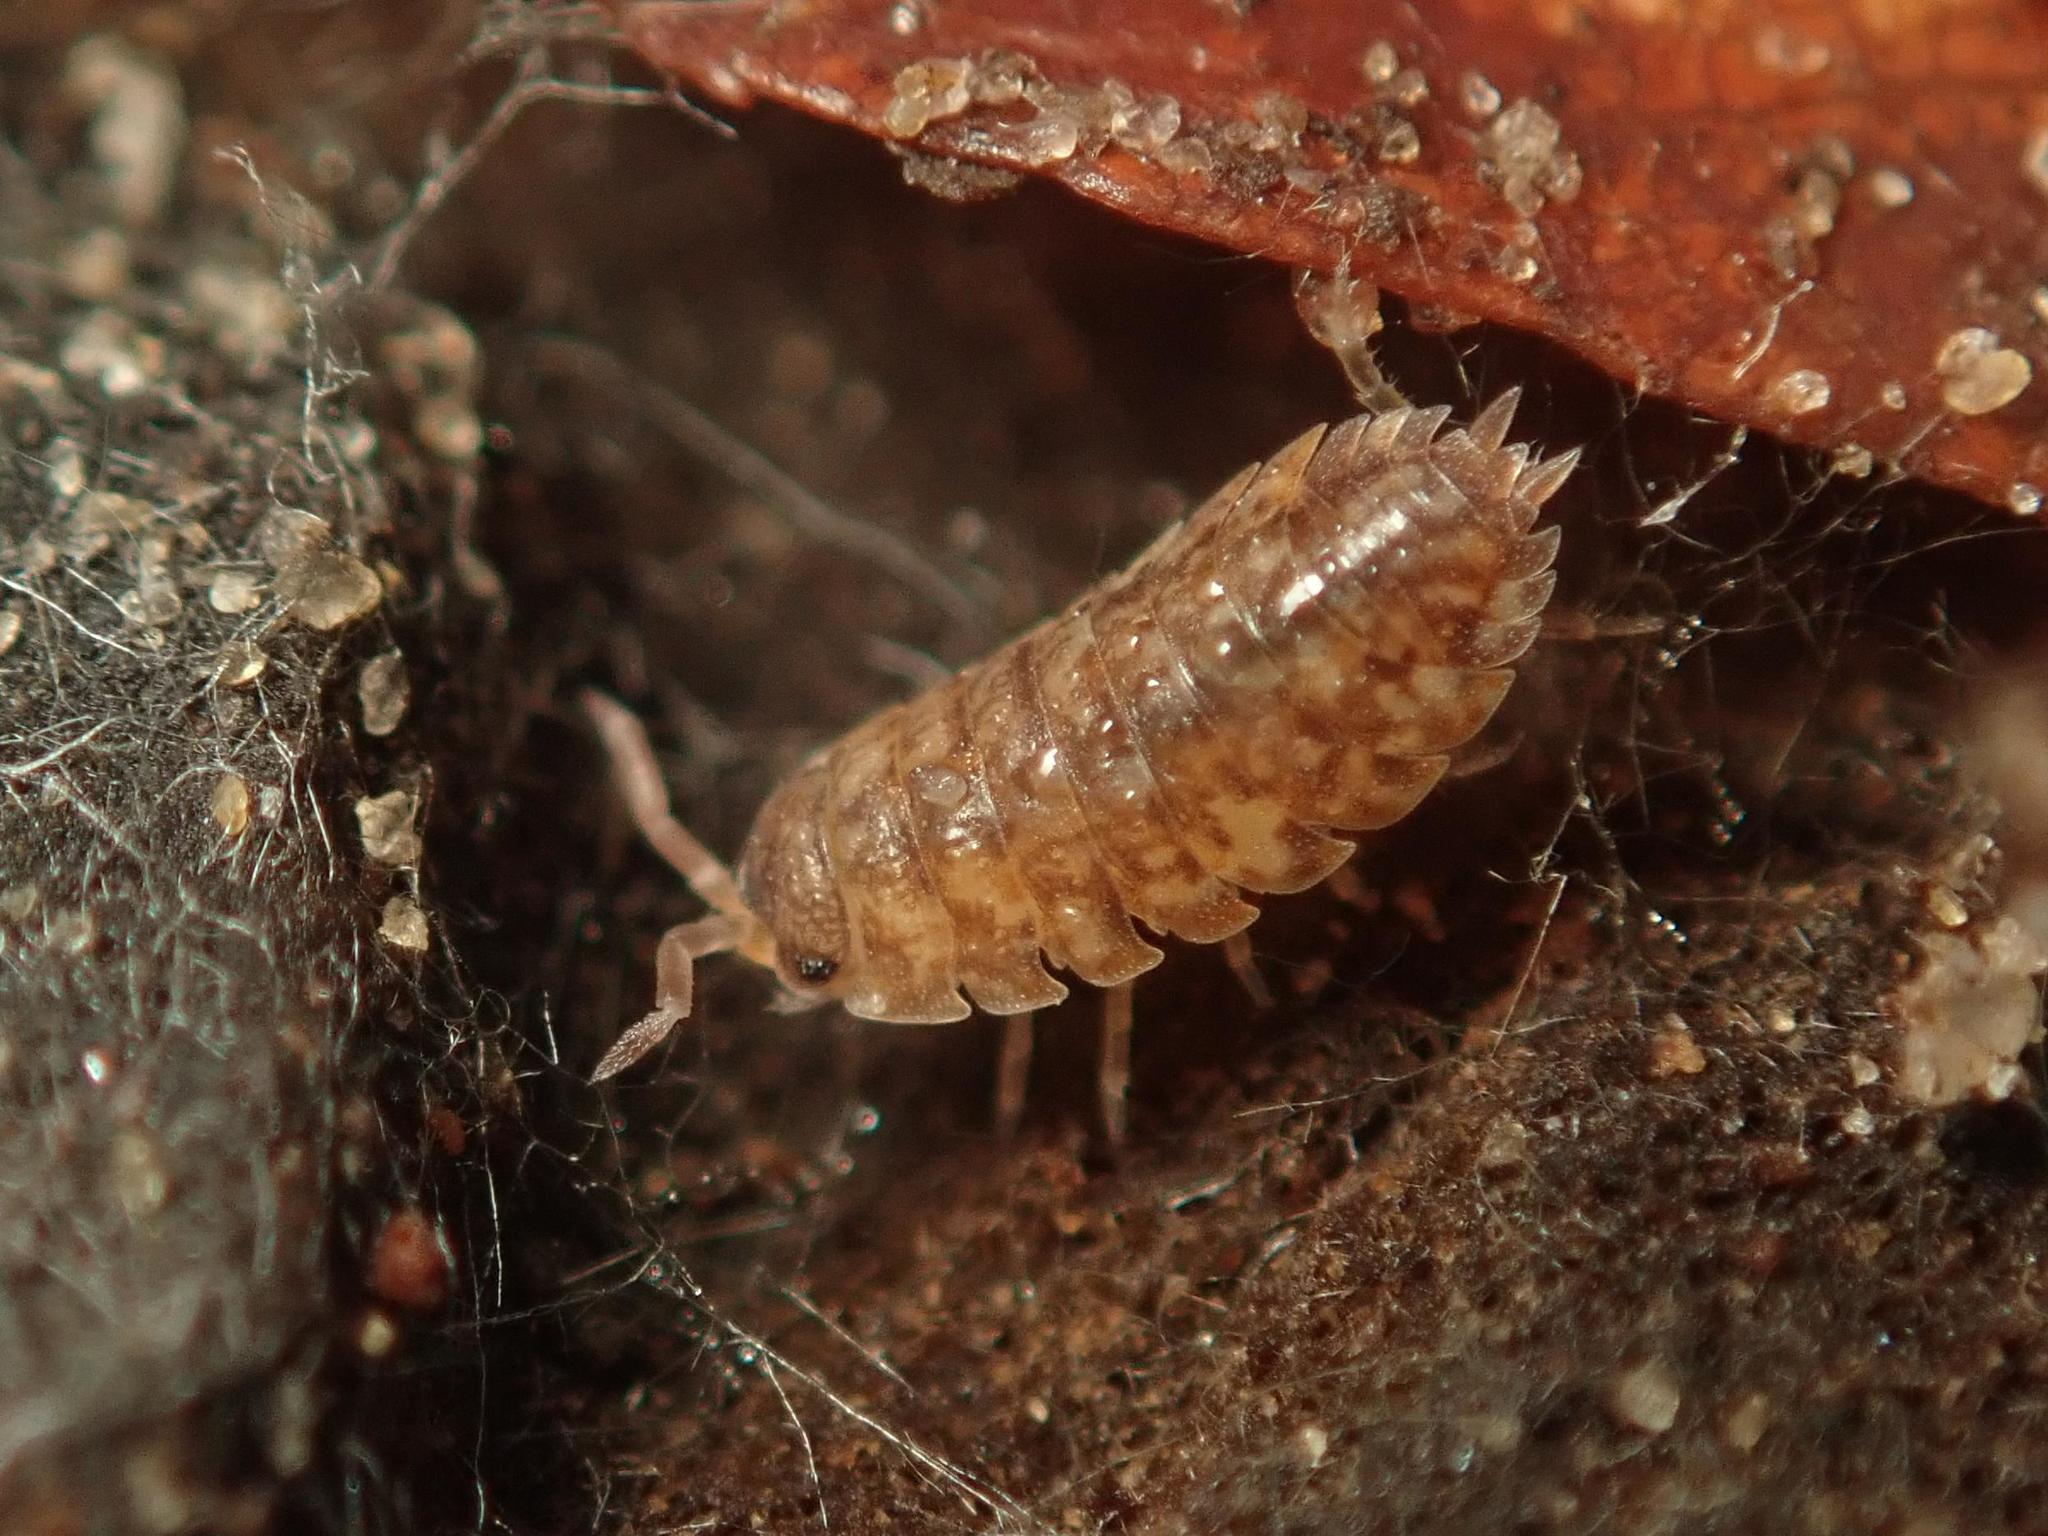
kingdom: Animalia
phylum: Arthropoda
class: Malacostraca
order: Isopoda
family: Porcellionidae
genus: Porcellio
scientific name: Porcellio scaber
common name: Common rough woodlouse
